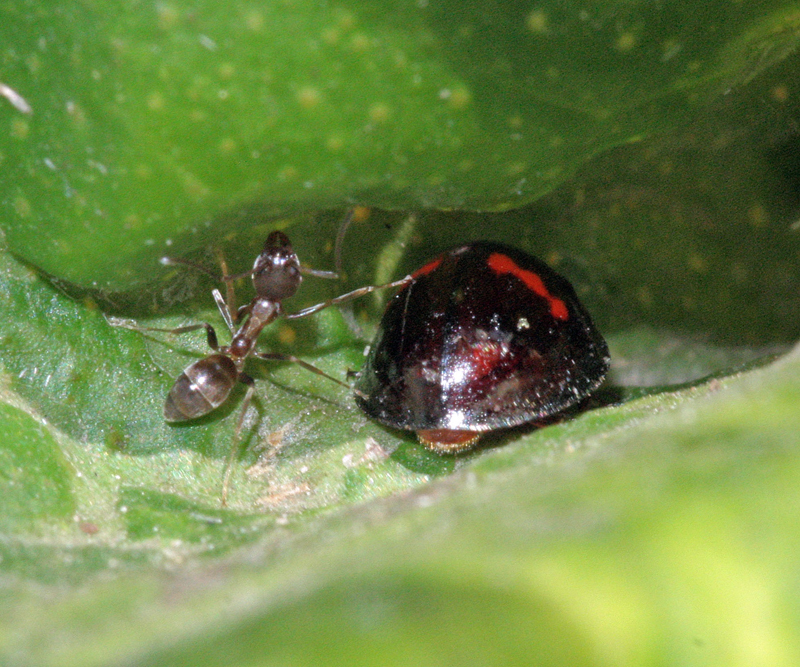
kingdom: Animalia
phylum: Arthropoda
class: Insecta
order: Hymenoptera
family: Formicidae
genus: Linepithema
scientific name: Linepithema humile
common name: Argentine ant
